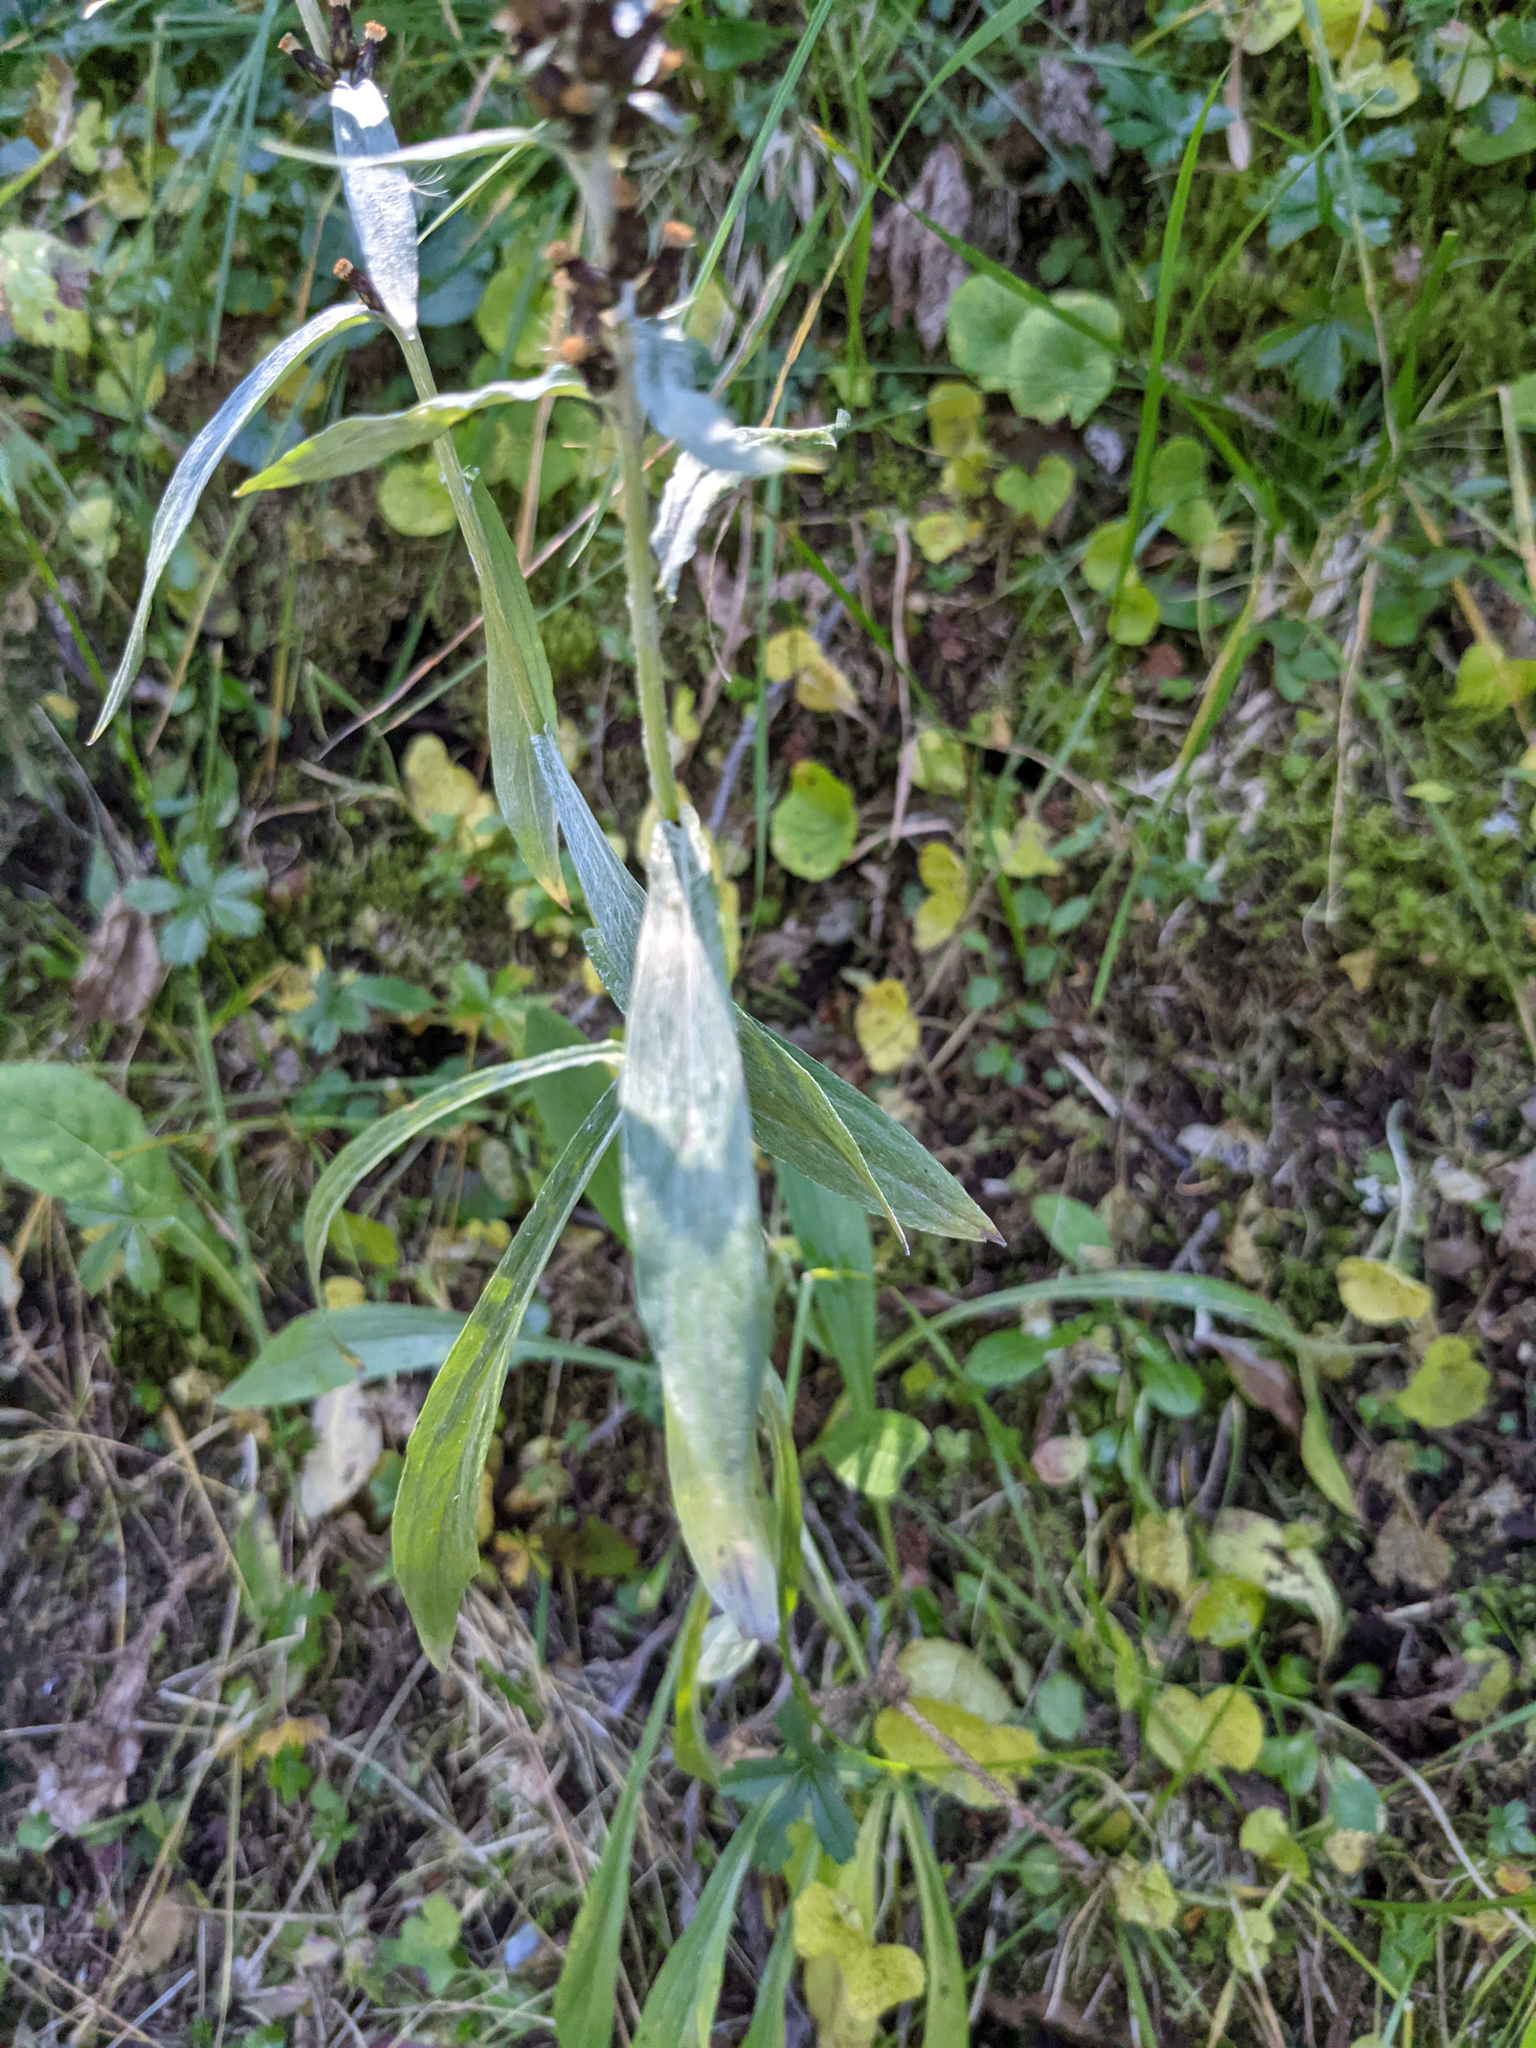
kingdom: Plantae
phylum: Tracheophyta
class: Magnoliopsida
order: Asterales
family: Asteraceae
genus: Omalotheca
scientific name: Omalotheca norvegica
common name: Norwegian arctic-cudweed
